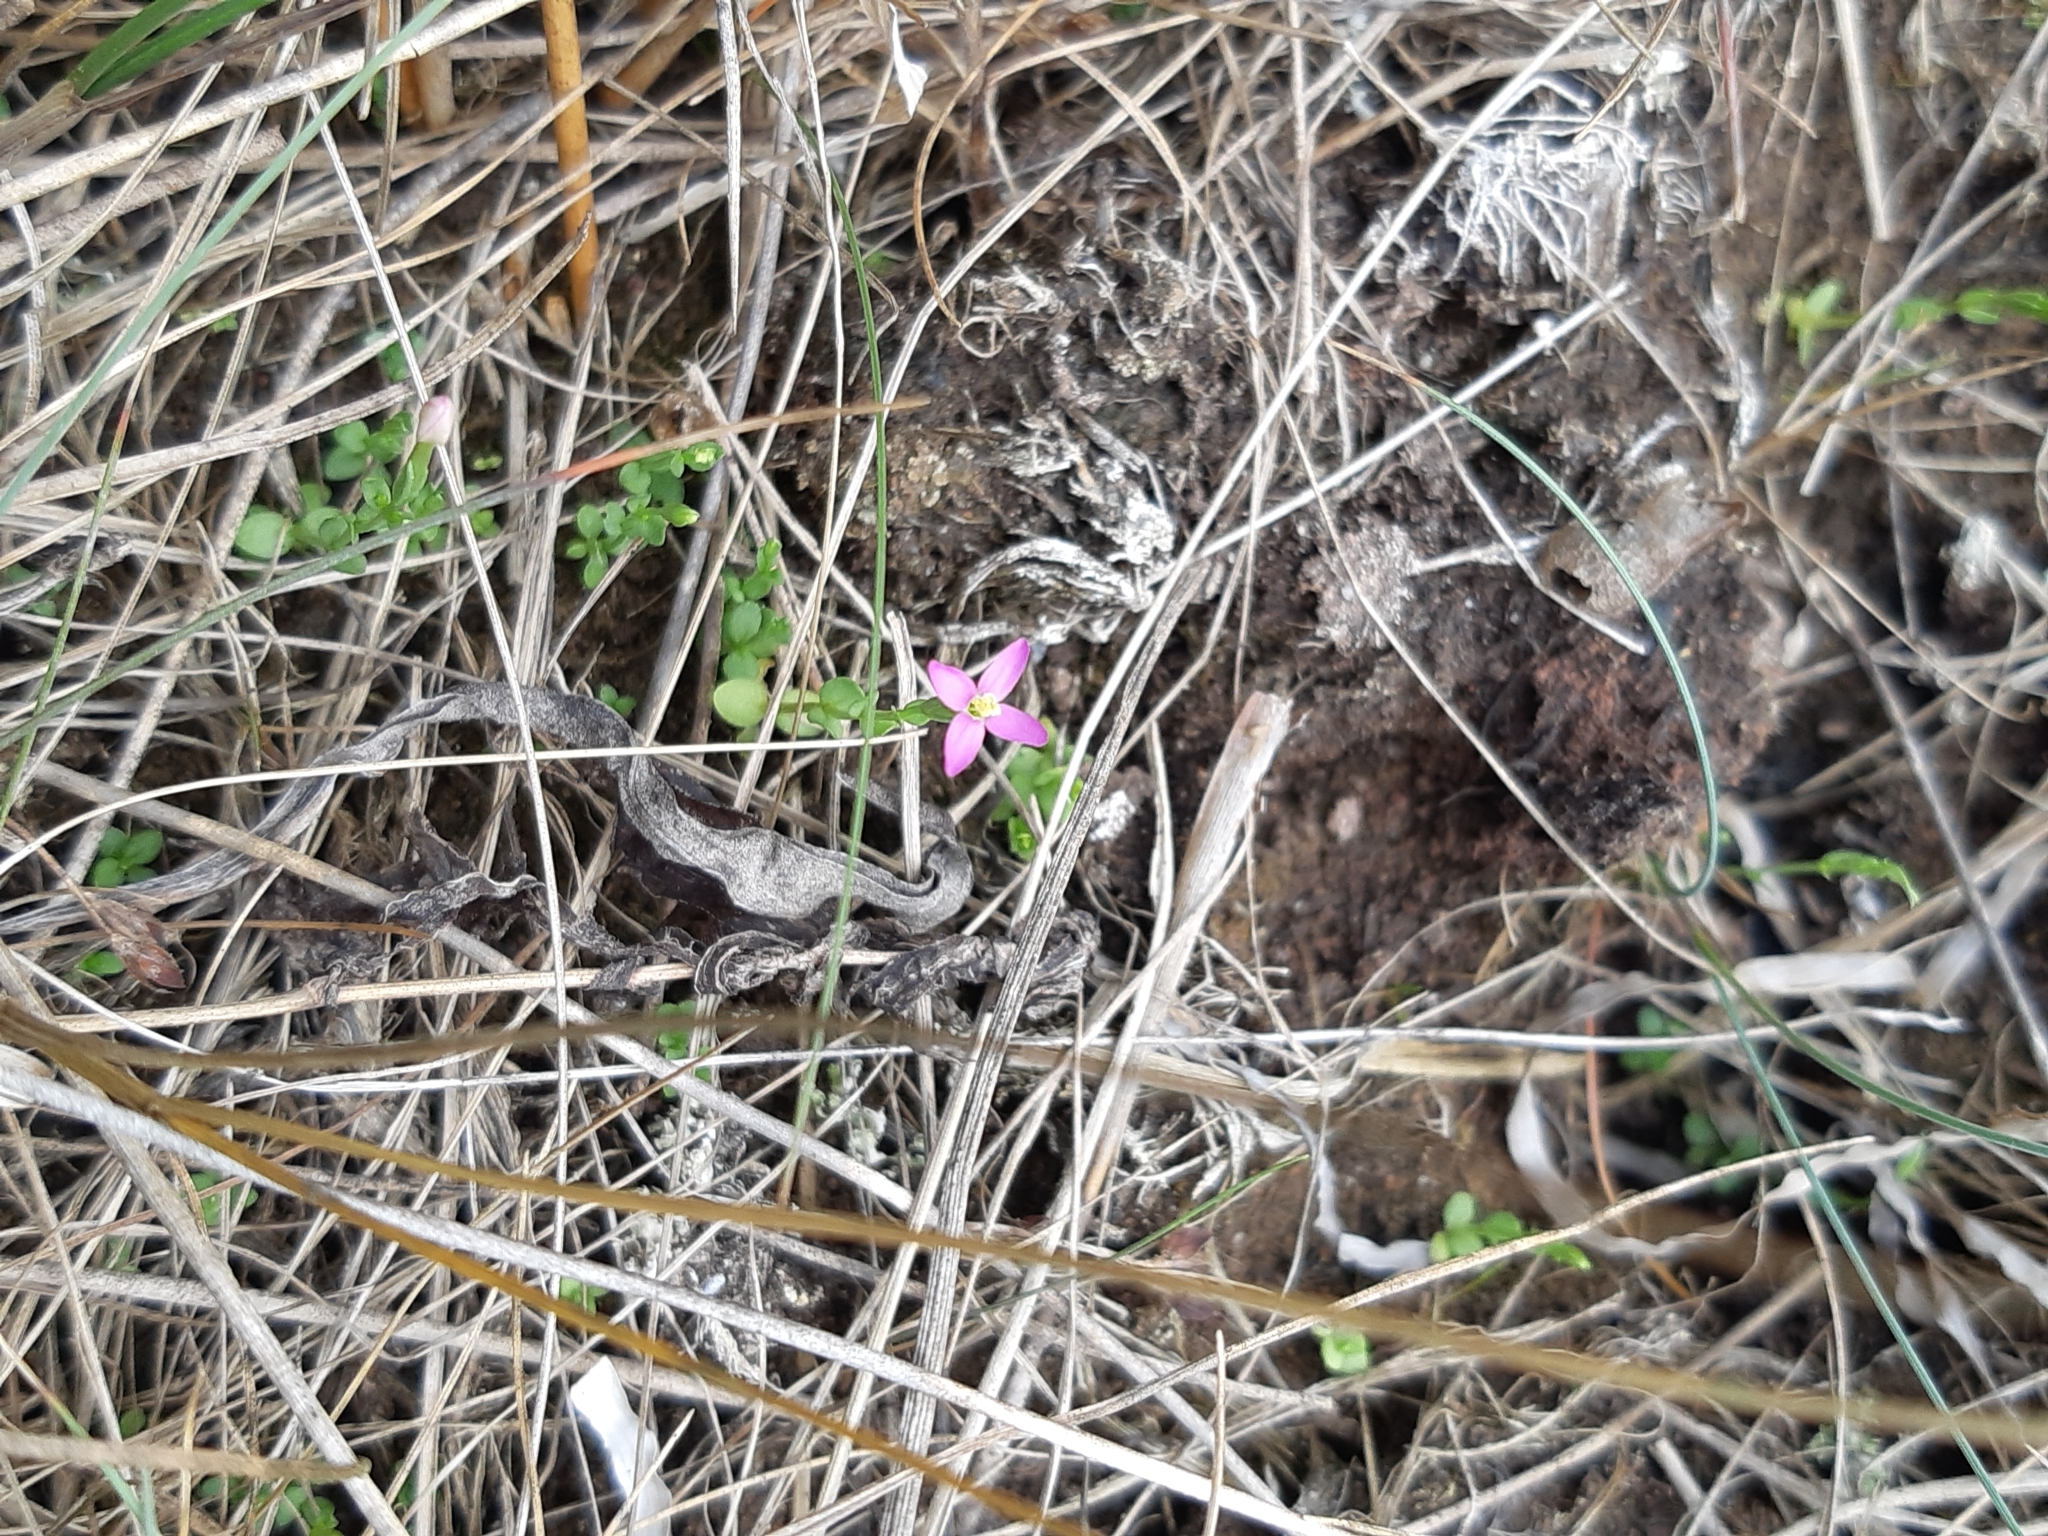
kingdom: Plantae
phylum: Tracheophyta
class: Magnoliopsida
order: Gentianales
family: Gentianaceae
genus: Centaurium
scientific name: Centaurium pulchellum
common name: Lesser centaury
